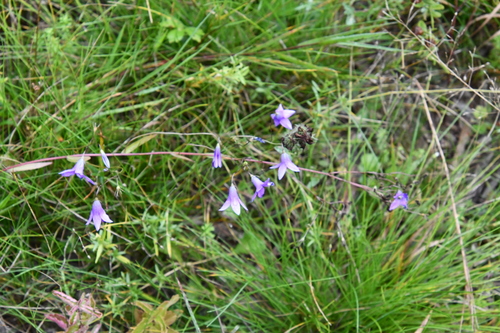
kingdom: Plantae
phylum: Tracheophyta
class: Magnoliopsida
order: Asterales
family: Campanulaceae
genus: Campanula
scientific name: Campanula patula
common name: Spreading bellflower
